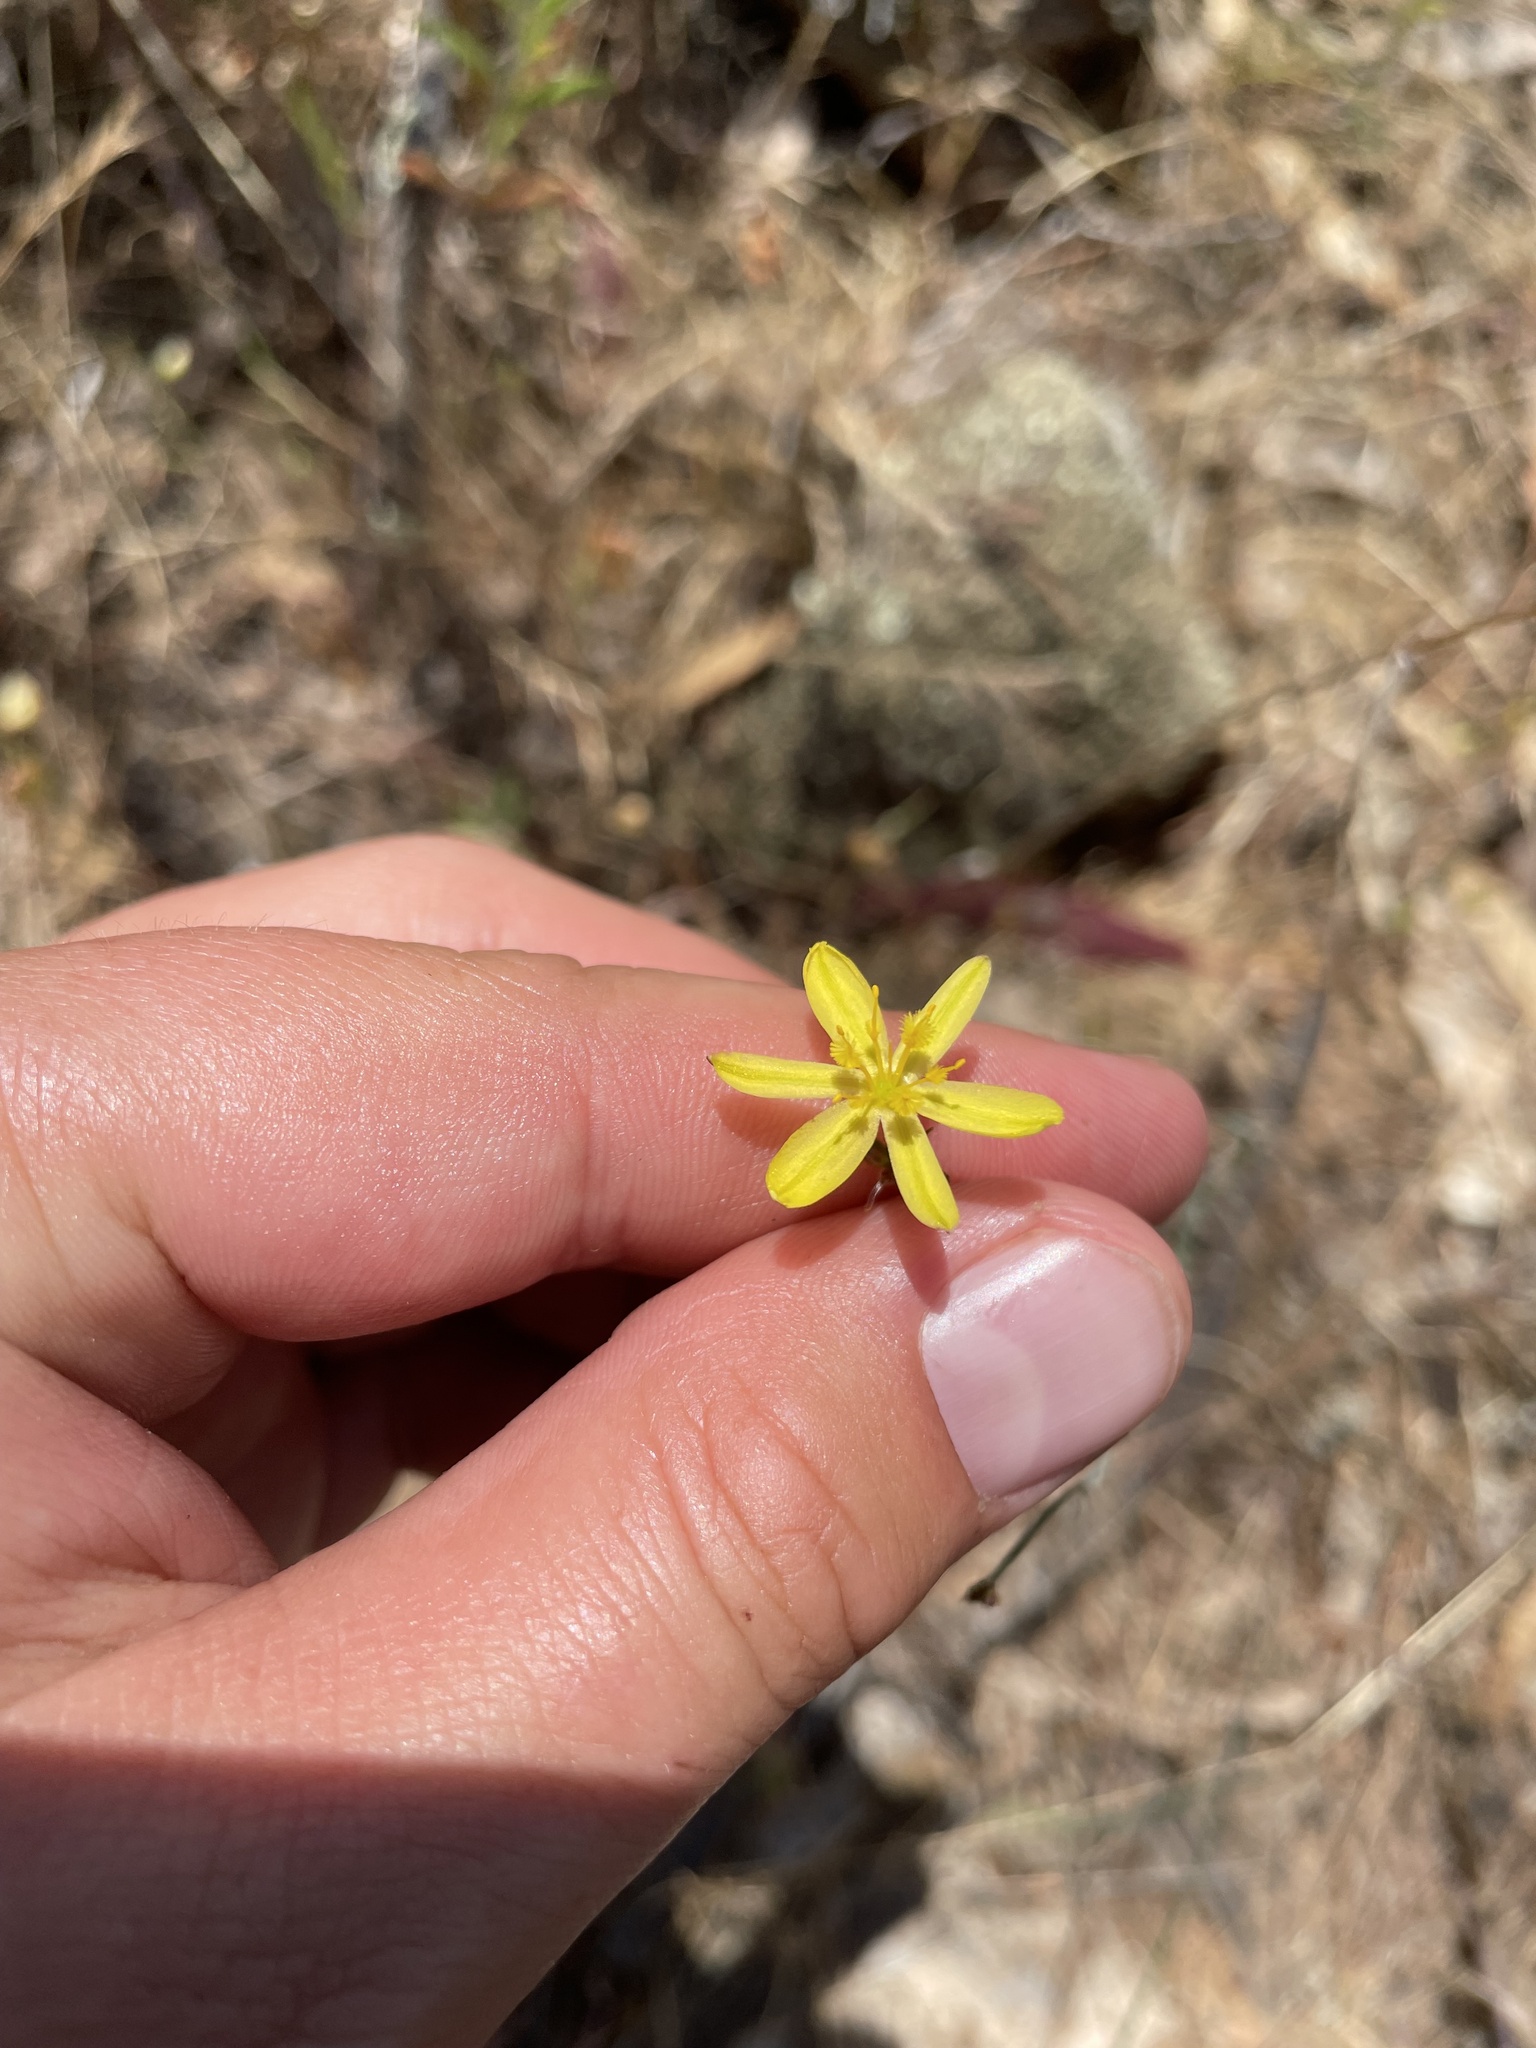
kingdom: Plantae
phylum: Tracheophyta
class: Liliopsida
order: Asparagales
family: Asphodelaceae
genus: Tricoryne
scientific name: Tricoryne elatior
